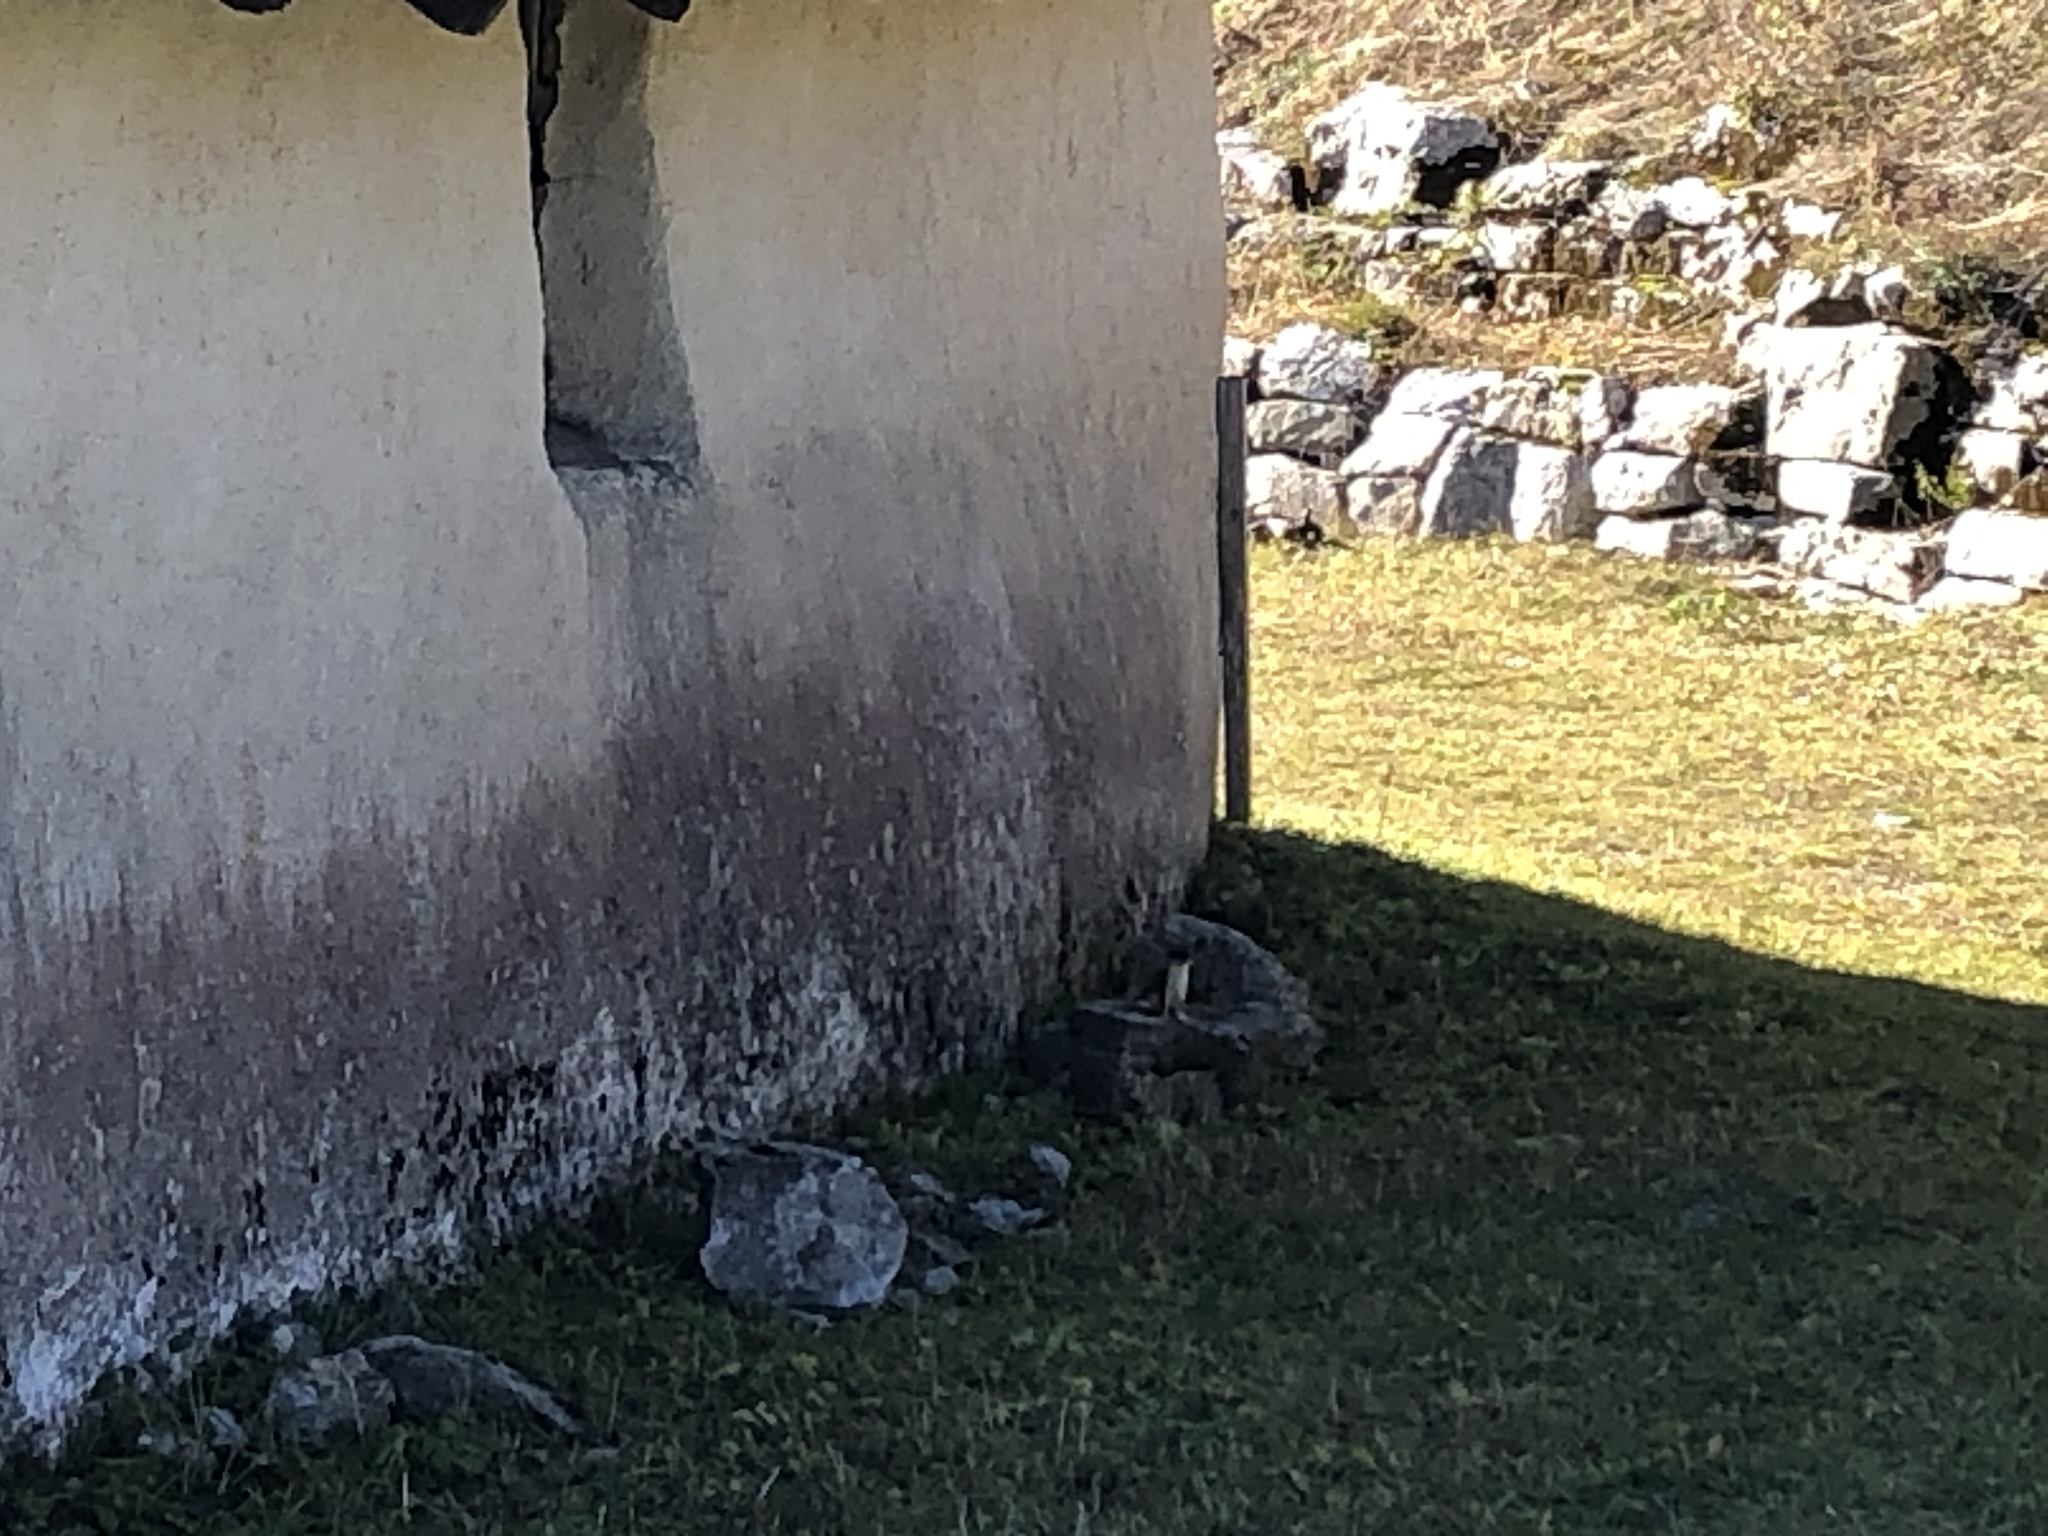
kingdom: Animalia
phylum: Chordata
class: Mammalia
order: Carnivora
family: Mustelidae
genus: Mustela
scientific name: Mustela erminea
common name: Stoat
